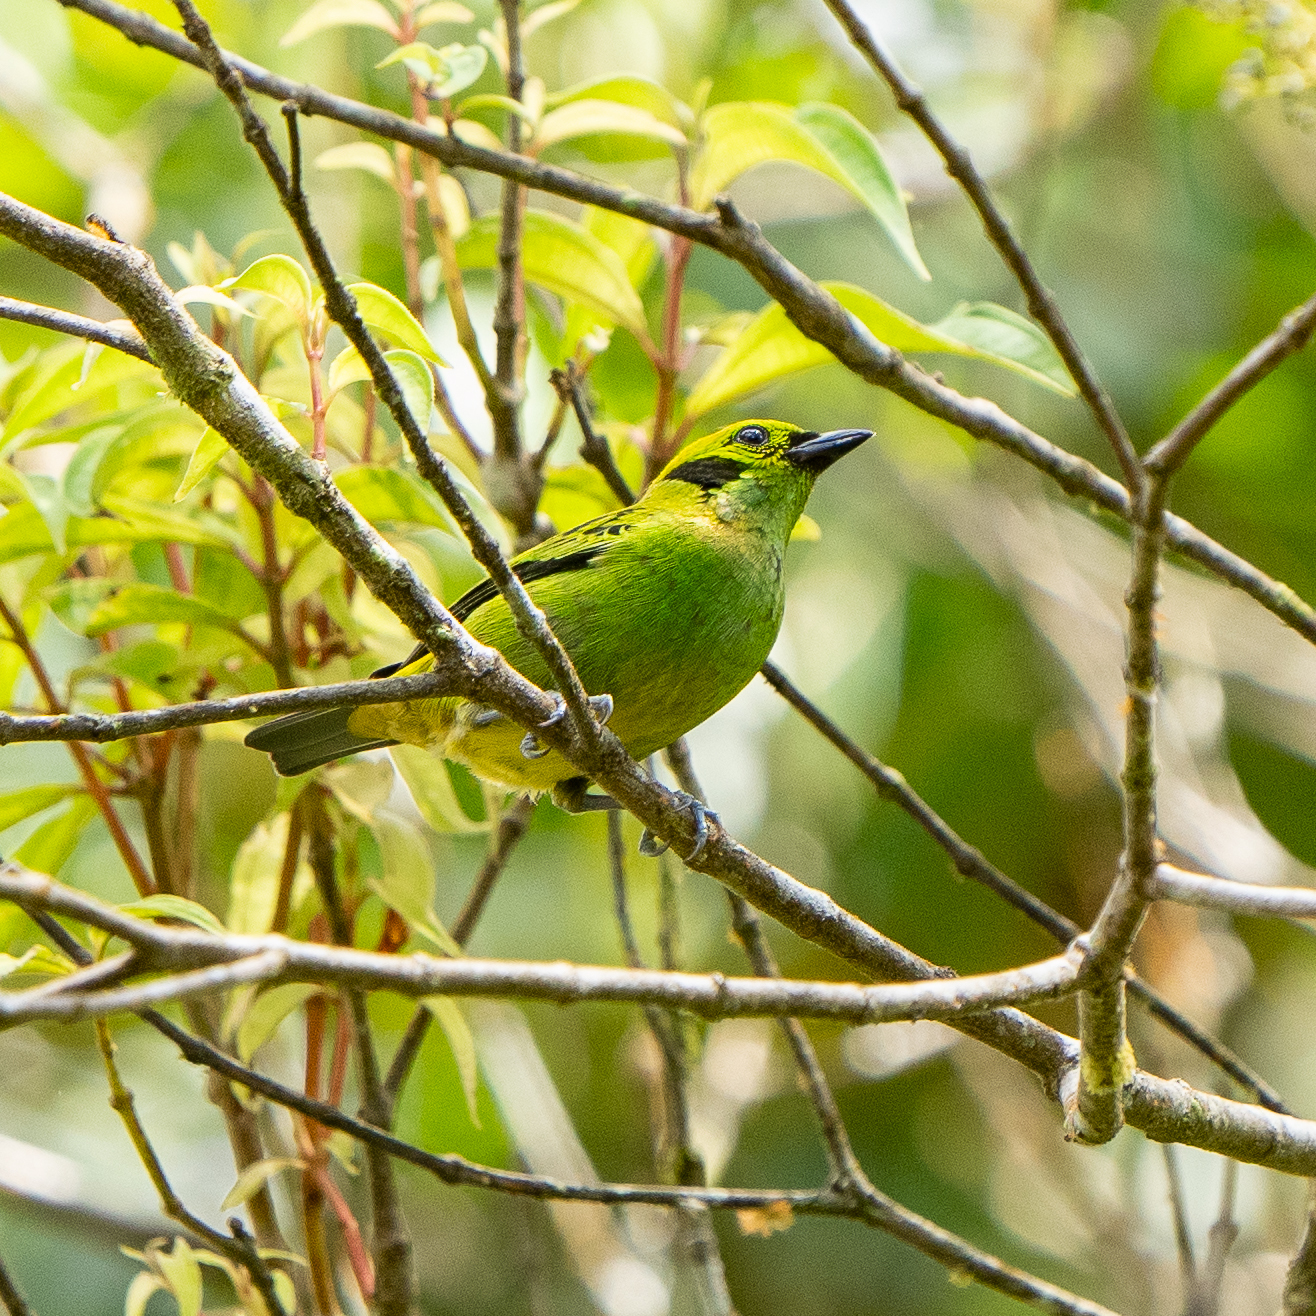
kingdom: Animalia
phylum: Chordata
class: Aves
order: Passeriformes
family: Thraupidae
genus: Tangara
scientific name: Tangara florida
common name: Emerald tanager
